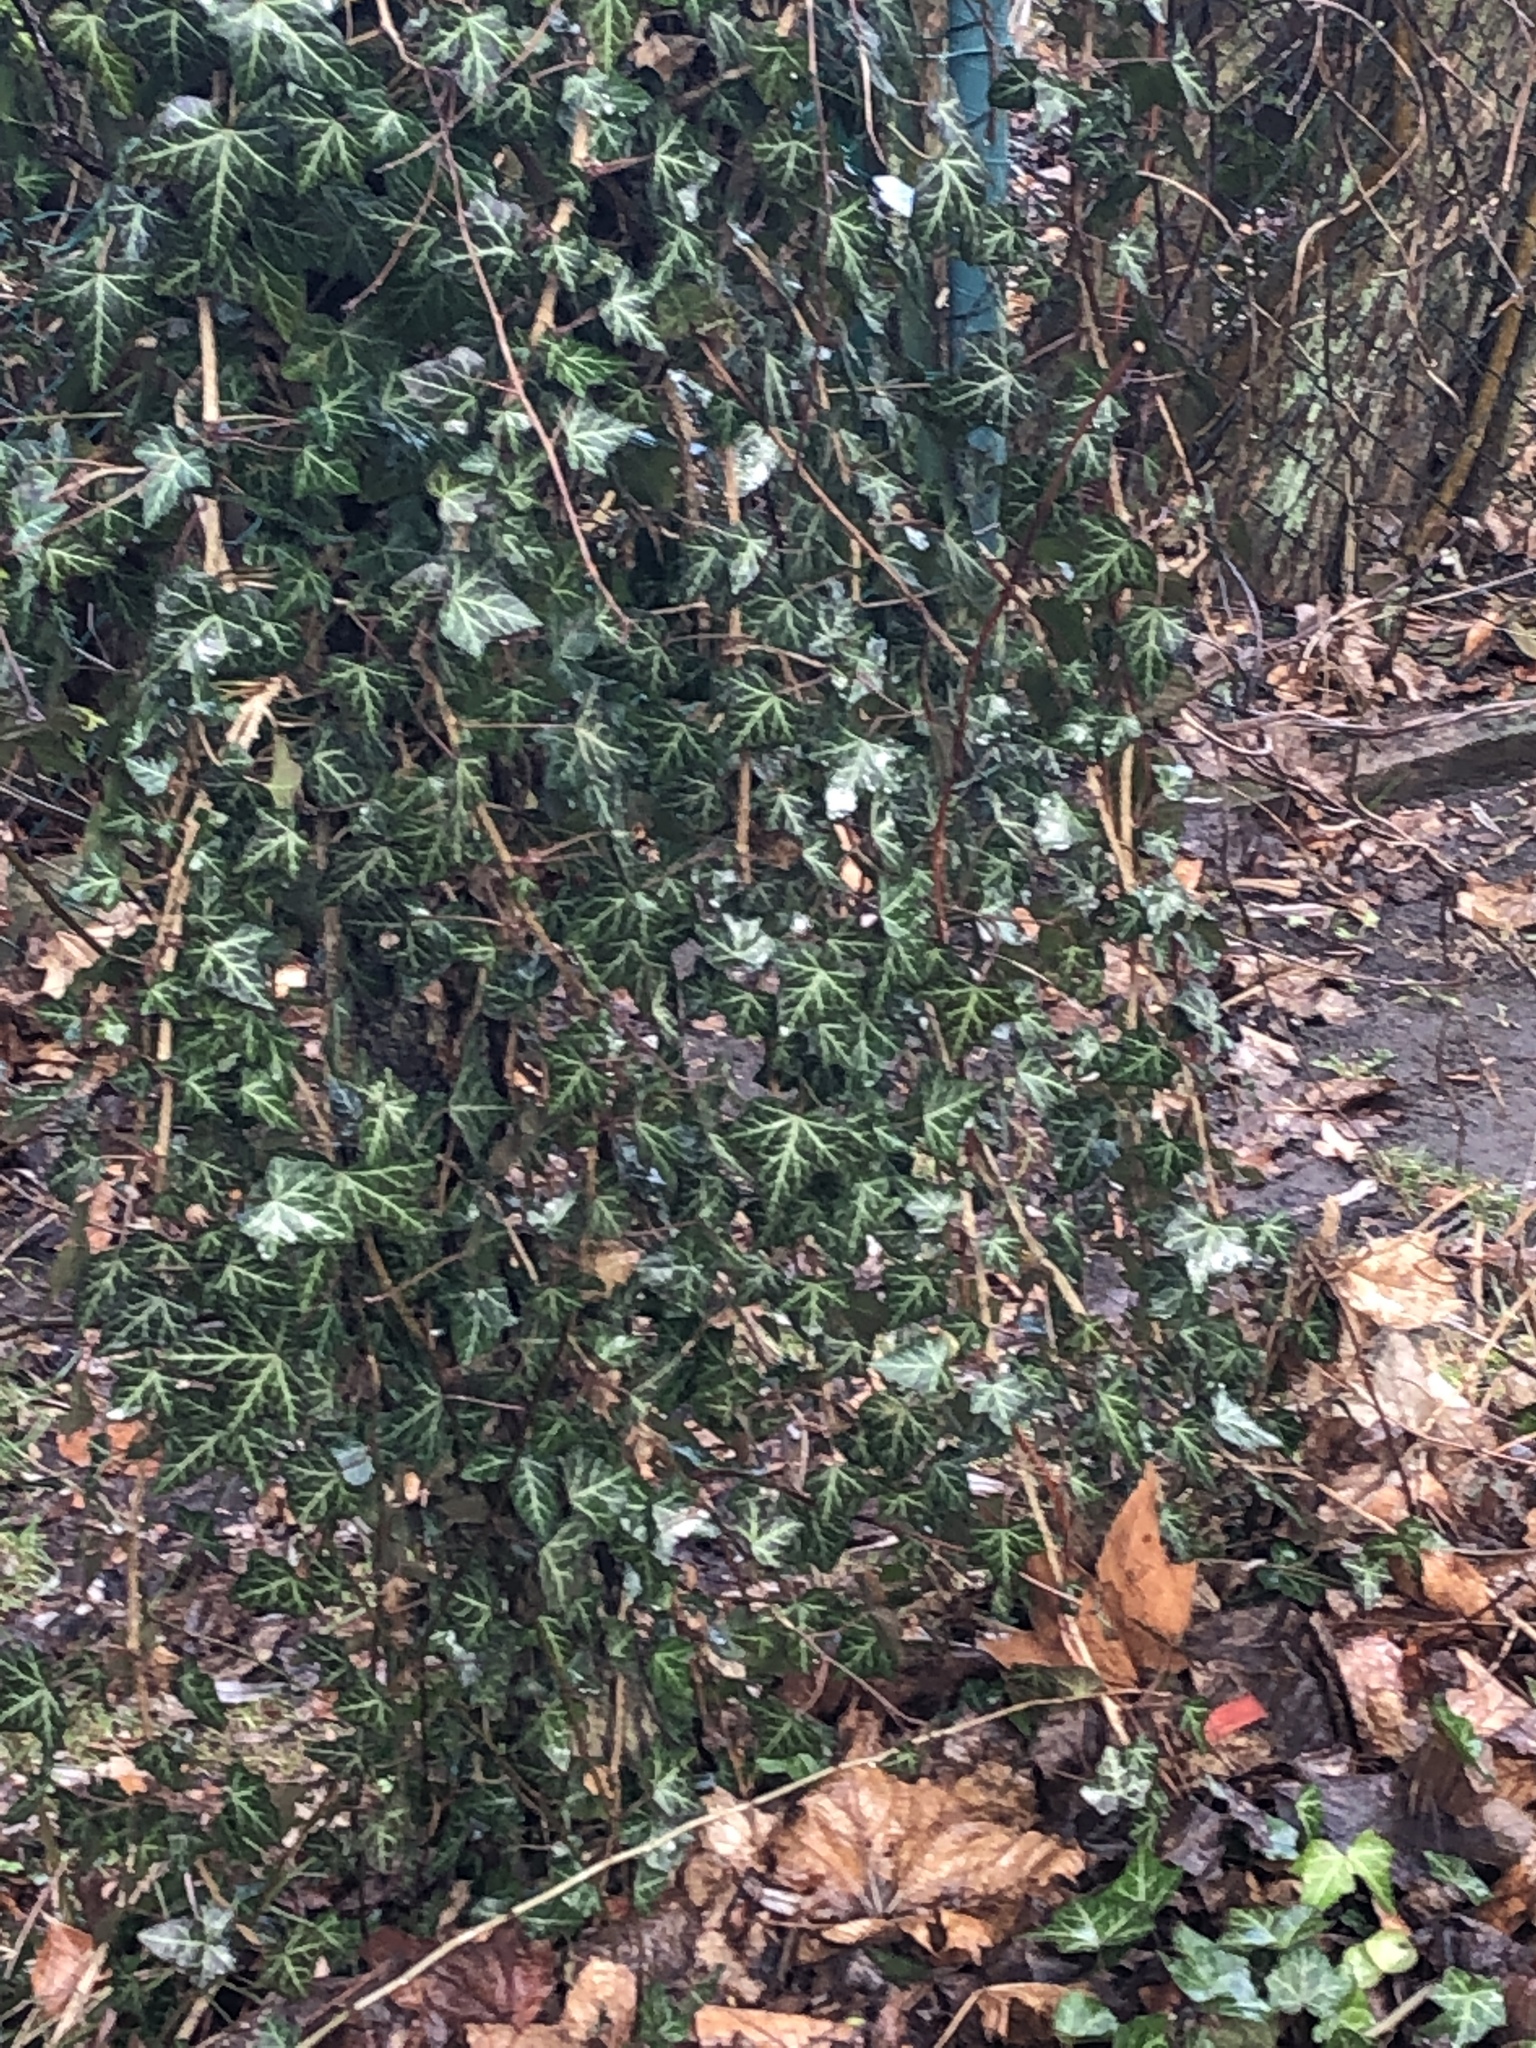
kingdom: Plantae
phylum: Tracheophyta
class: Magnoliopsida
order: Apiales
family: Araliaceae
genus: Hedera
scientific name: Hedera helix
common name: Ivy
